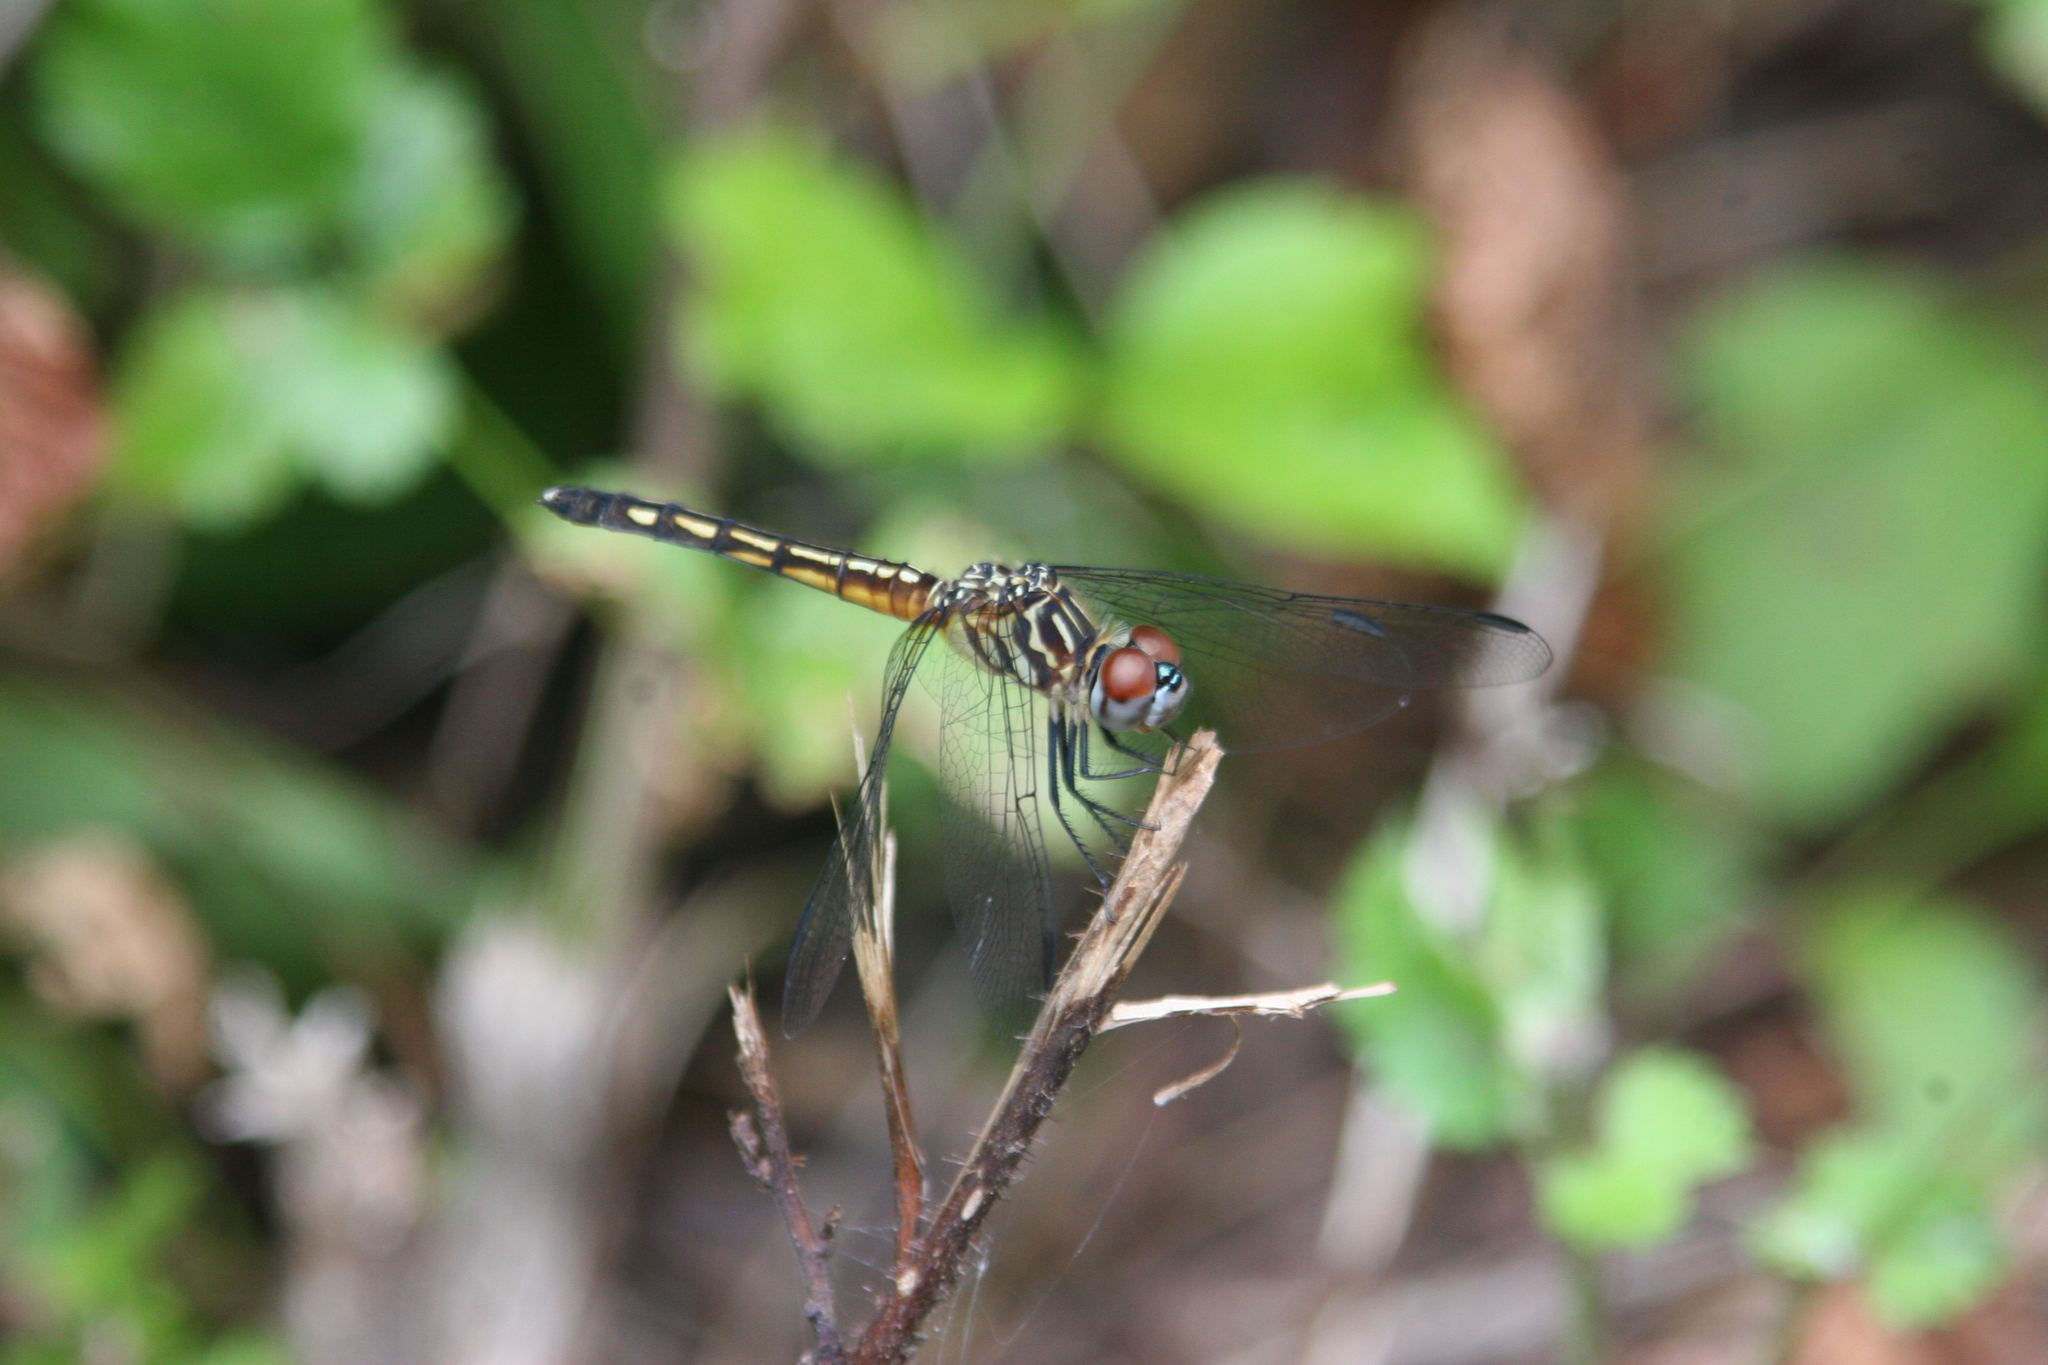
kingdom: Animalia
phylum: Arthropoda
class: Insecta
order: Odonata
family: Libellulidae
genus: Pachydiplax
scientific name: Pachydiplax longipennis
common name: Blue dasher
